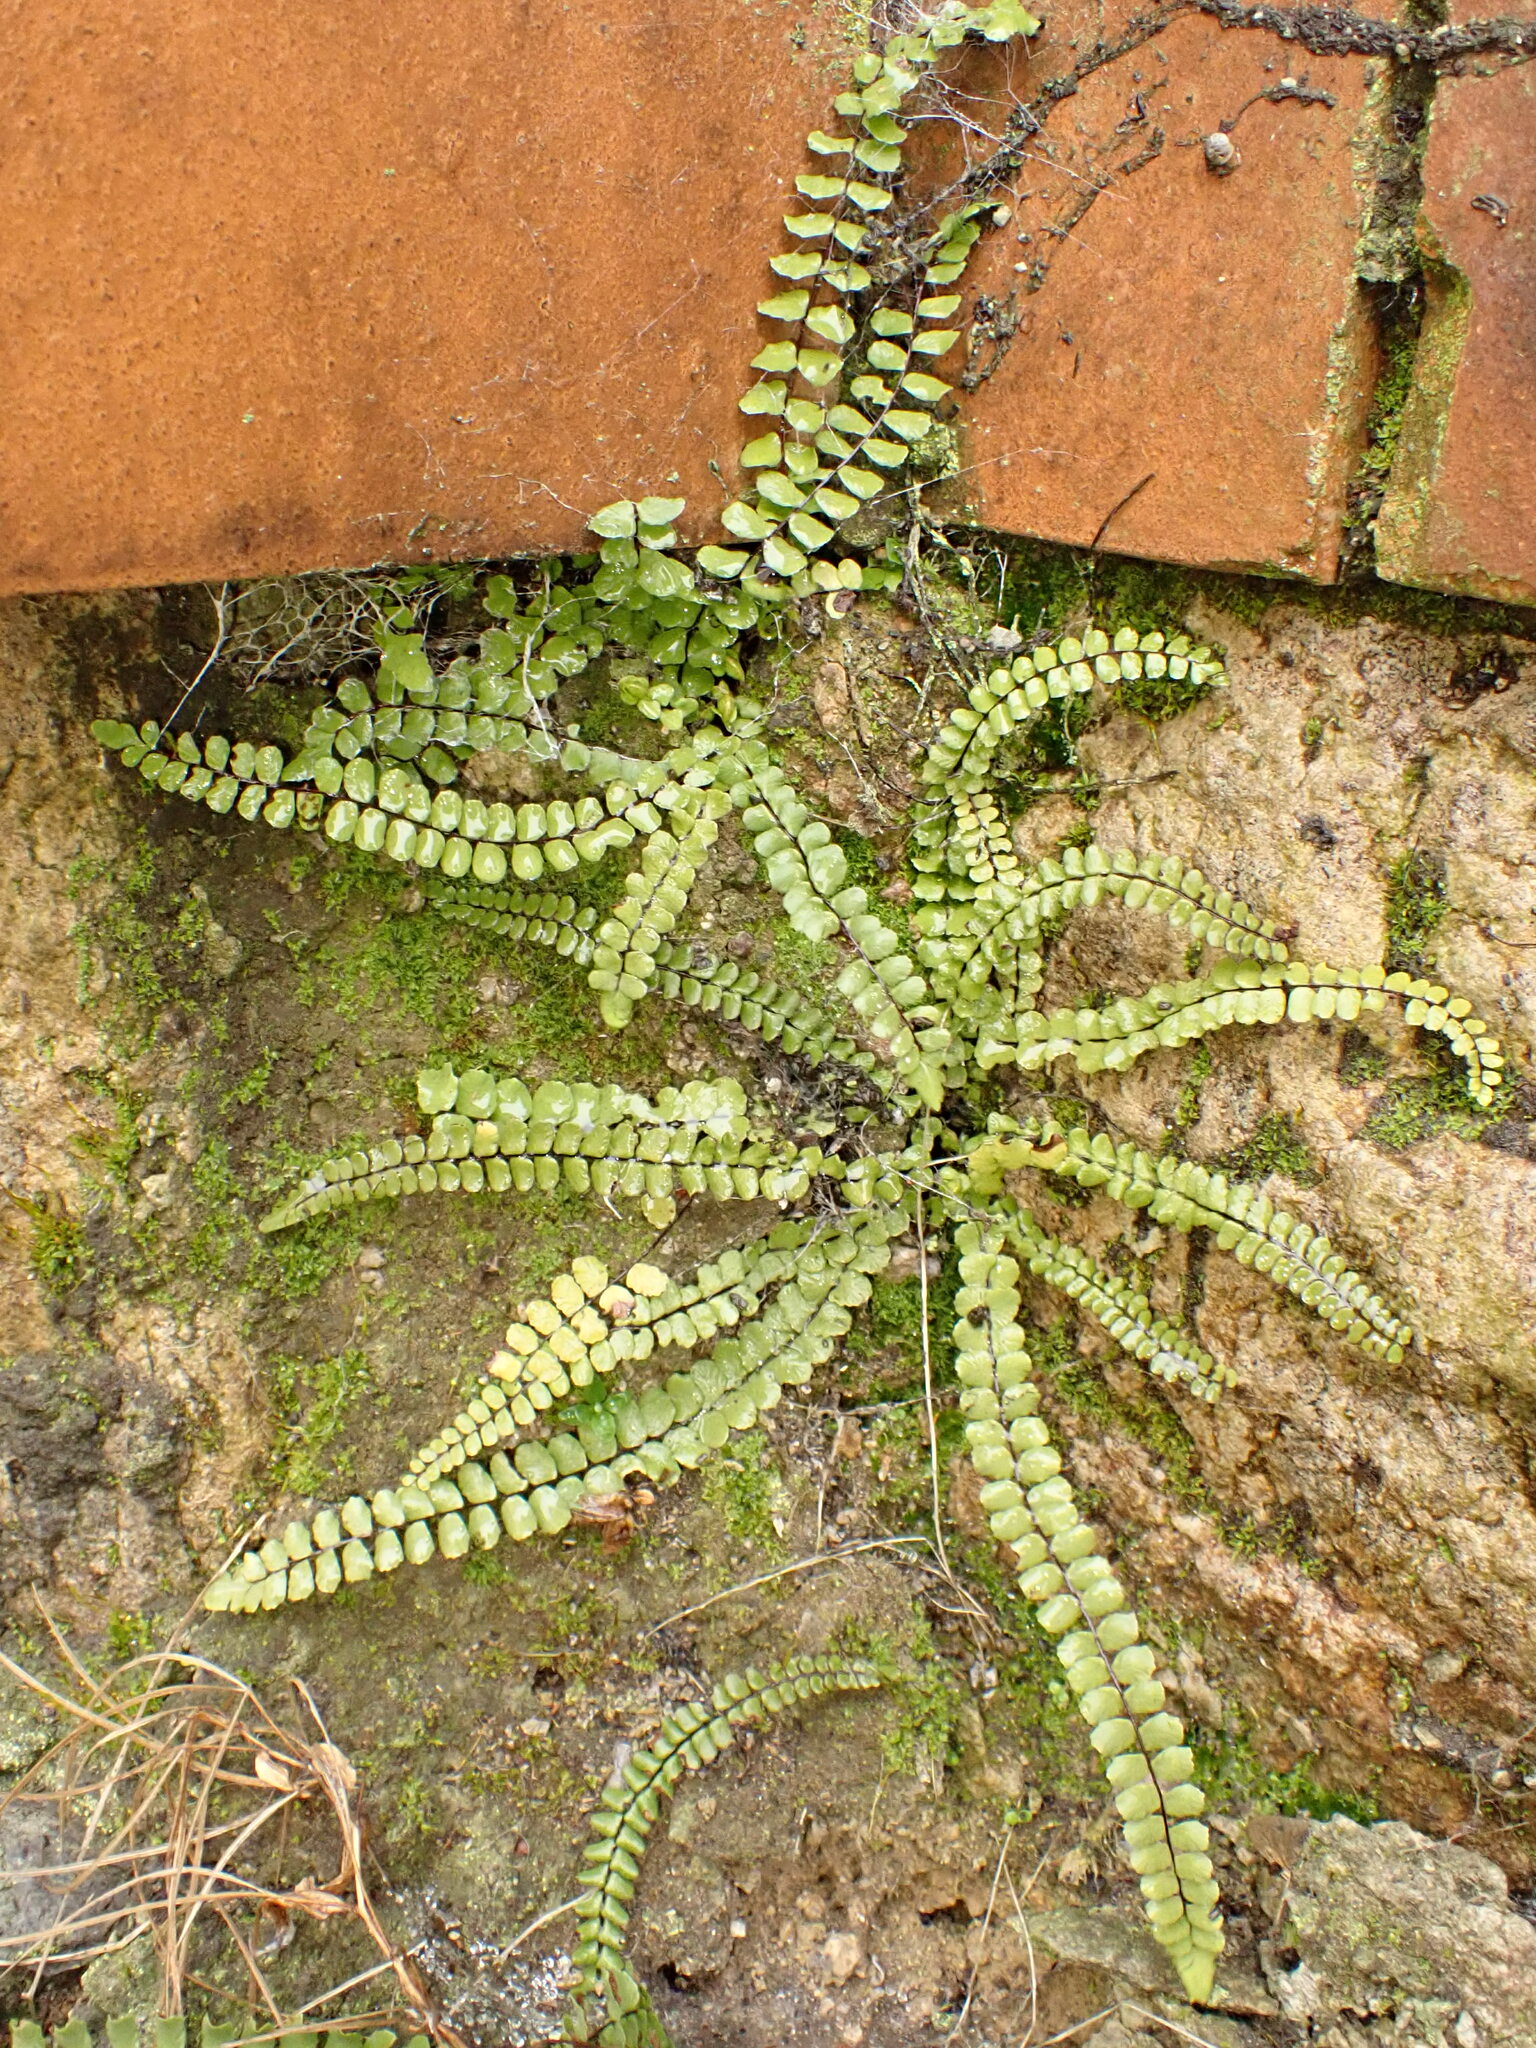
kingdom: Plantae
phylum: Tracheophyta
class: Polypodiopsida
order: Polypodiales
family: Aspleniaceae
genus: Asplenium
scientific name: Asplenium trichomanes
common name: Maidenhair spleenwort
